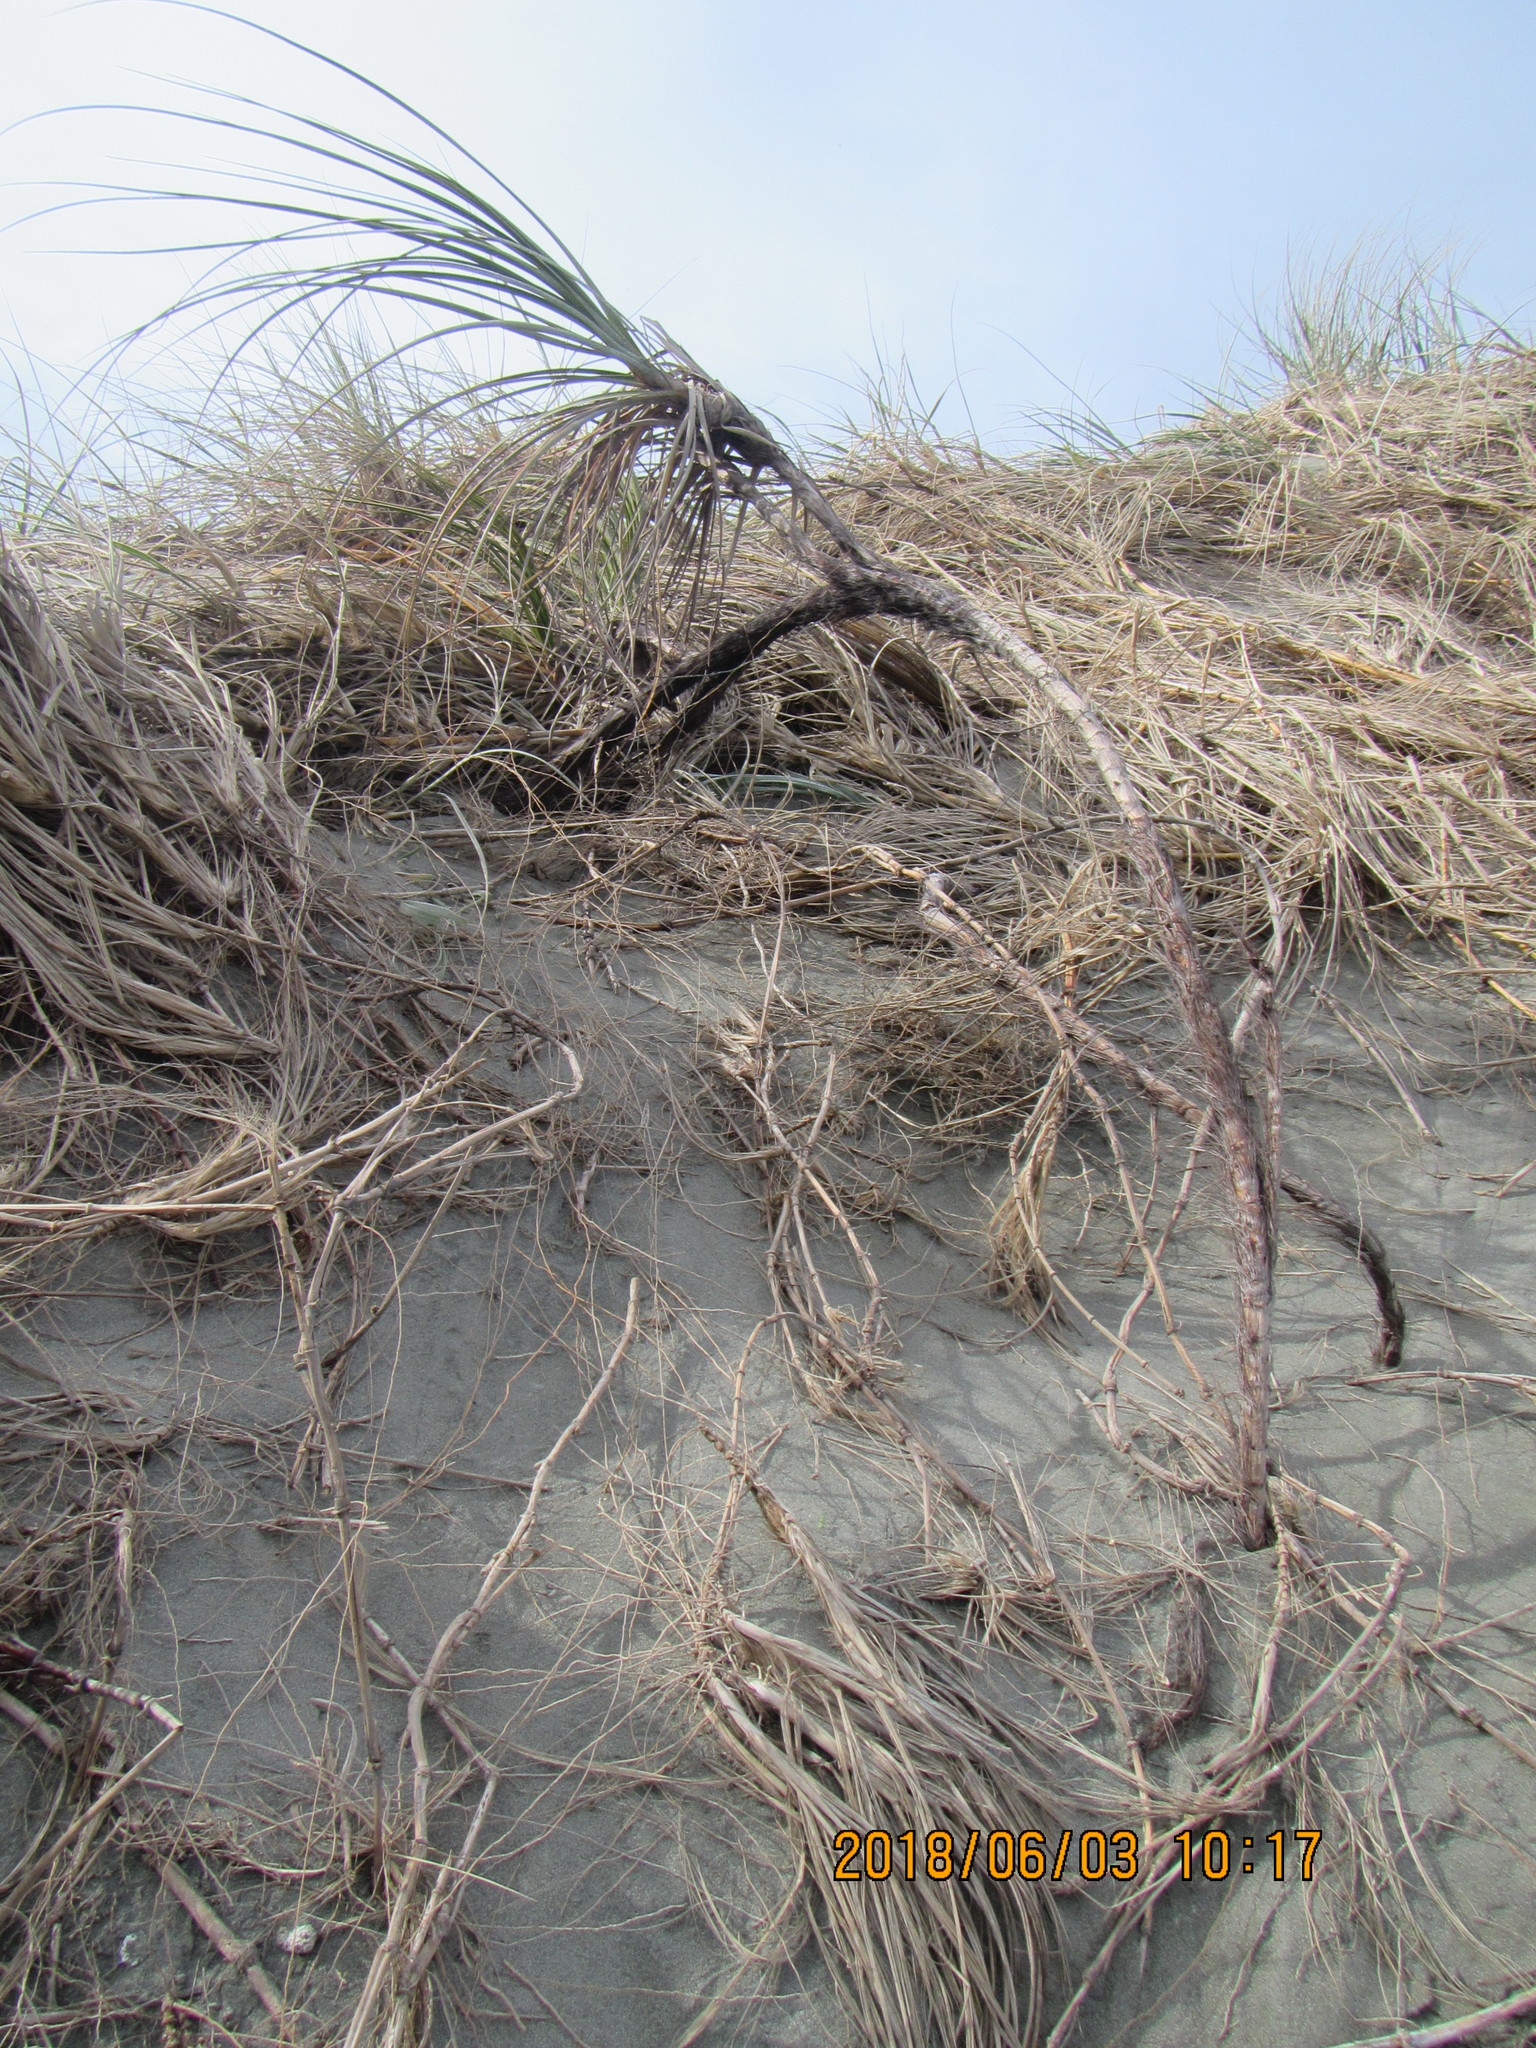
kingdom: Plantae
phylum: Tracheophyta
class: Liliopsida
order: Poales
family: Cyperaceae
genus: Ficinia
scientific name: Ficinia spiralis
